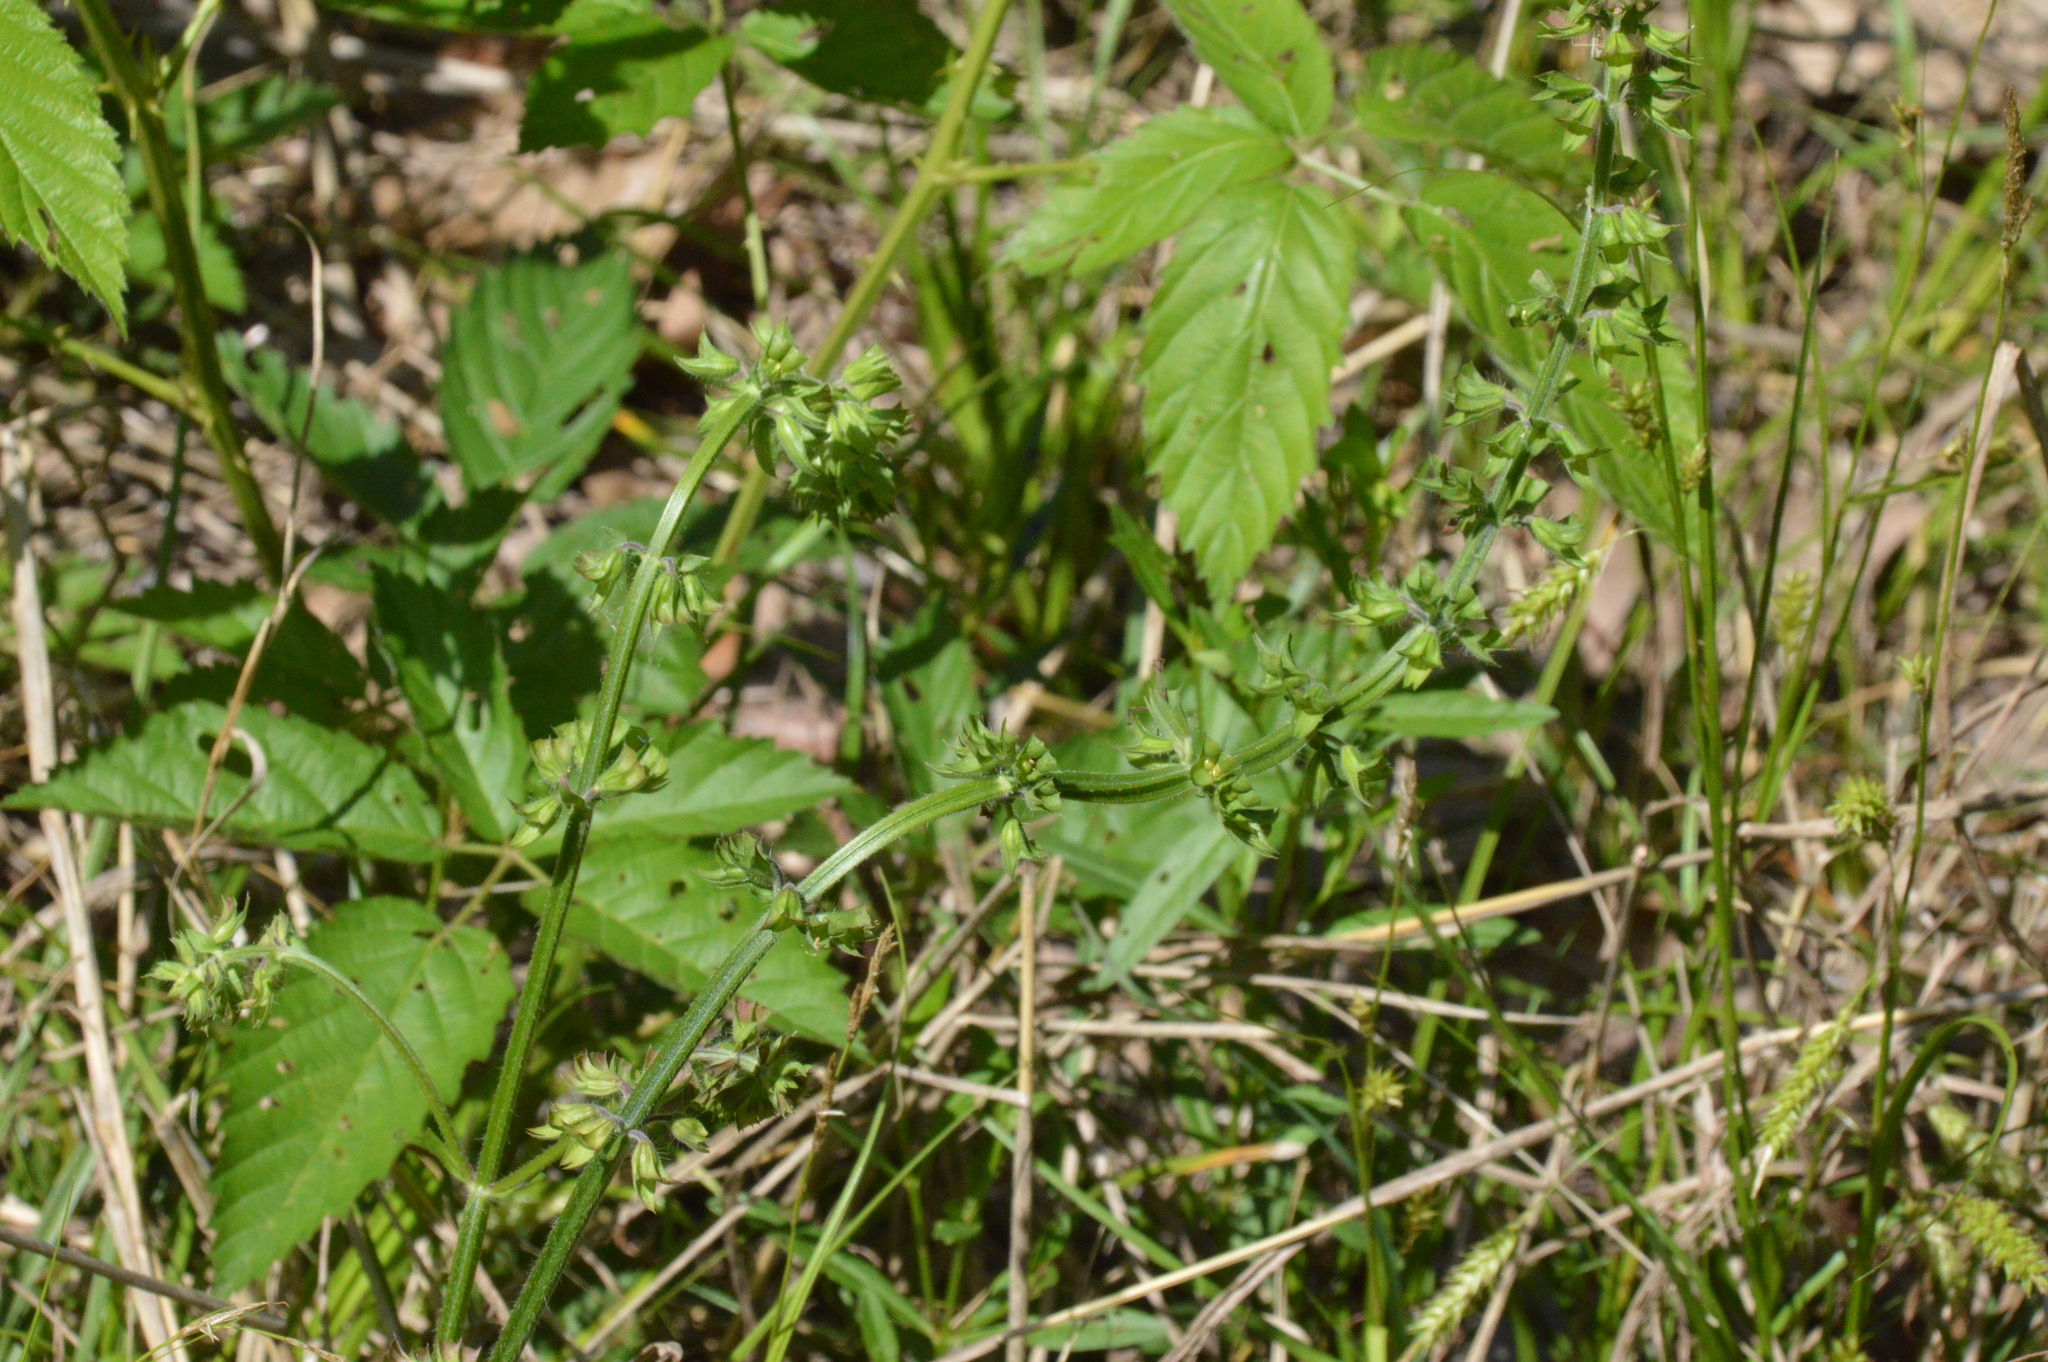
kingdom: Plantae
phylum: Tracheophyta
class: Magnoliopsida
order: Lamiales
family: Lamiaceae
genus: Salvia
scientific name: Salvia lyrata
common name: Cancerweed
